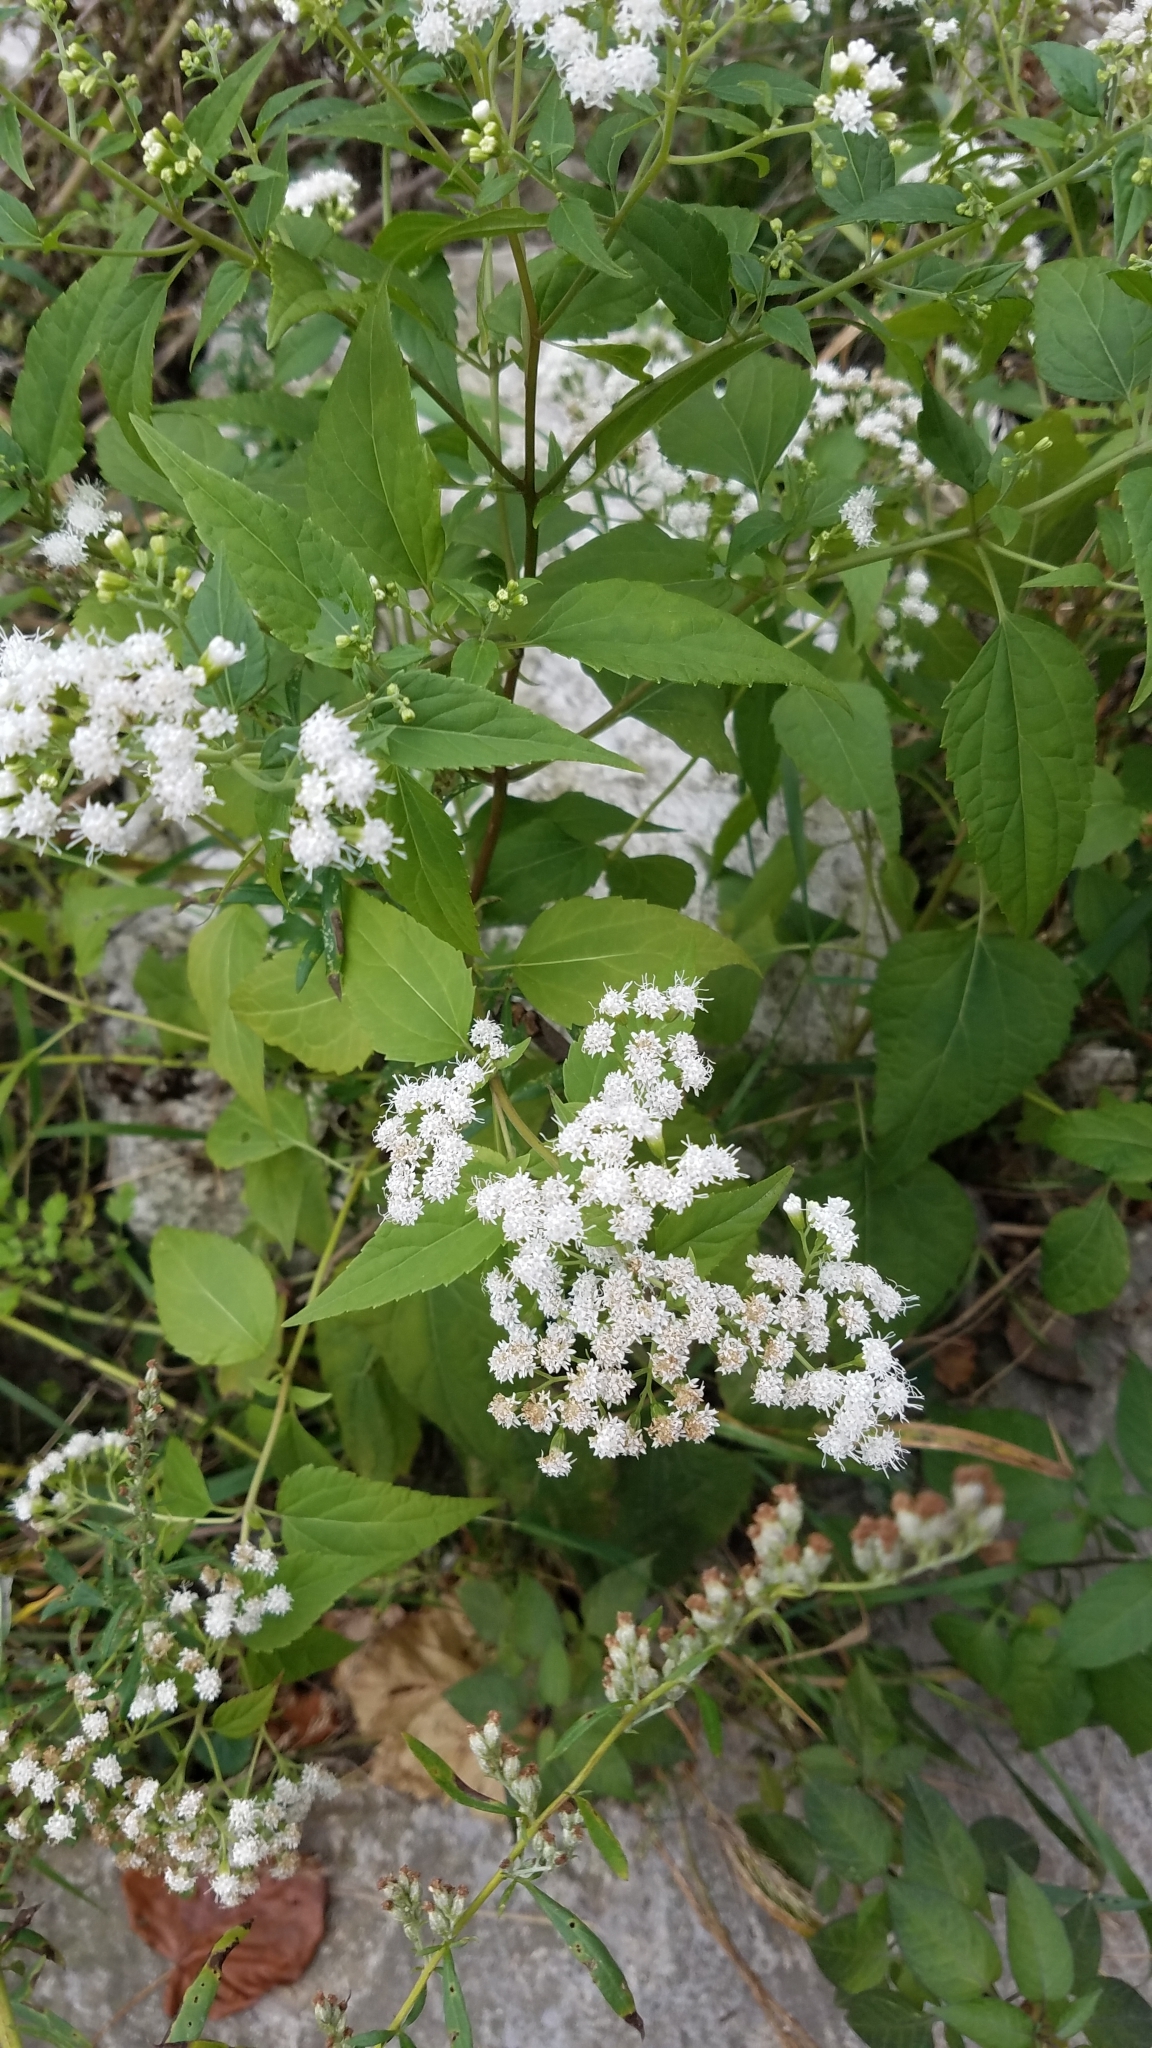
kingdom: Plantae
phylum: Tracheophyta
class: Magnoliopsida
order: Asterales
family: Asteraceae
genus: Ageratina
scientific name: Ageratina altissima
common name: White snakeroot
